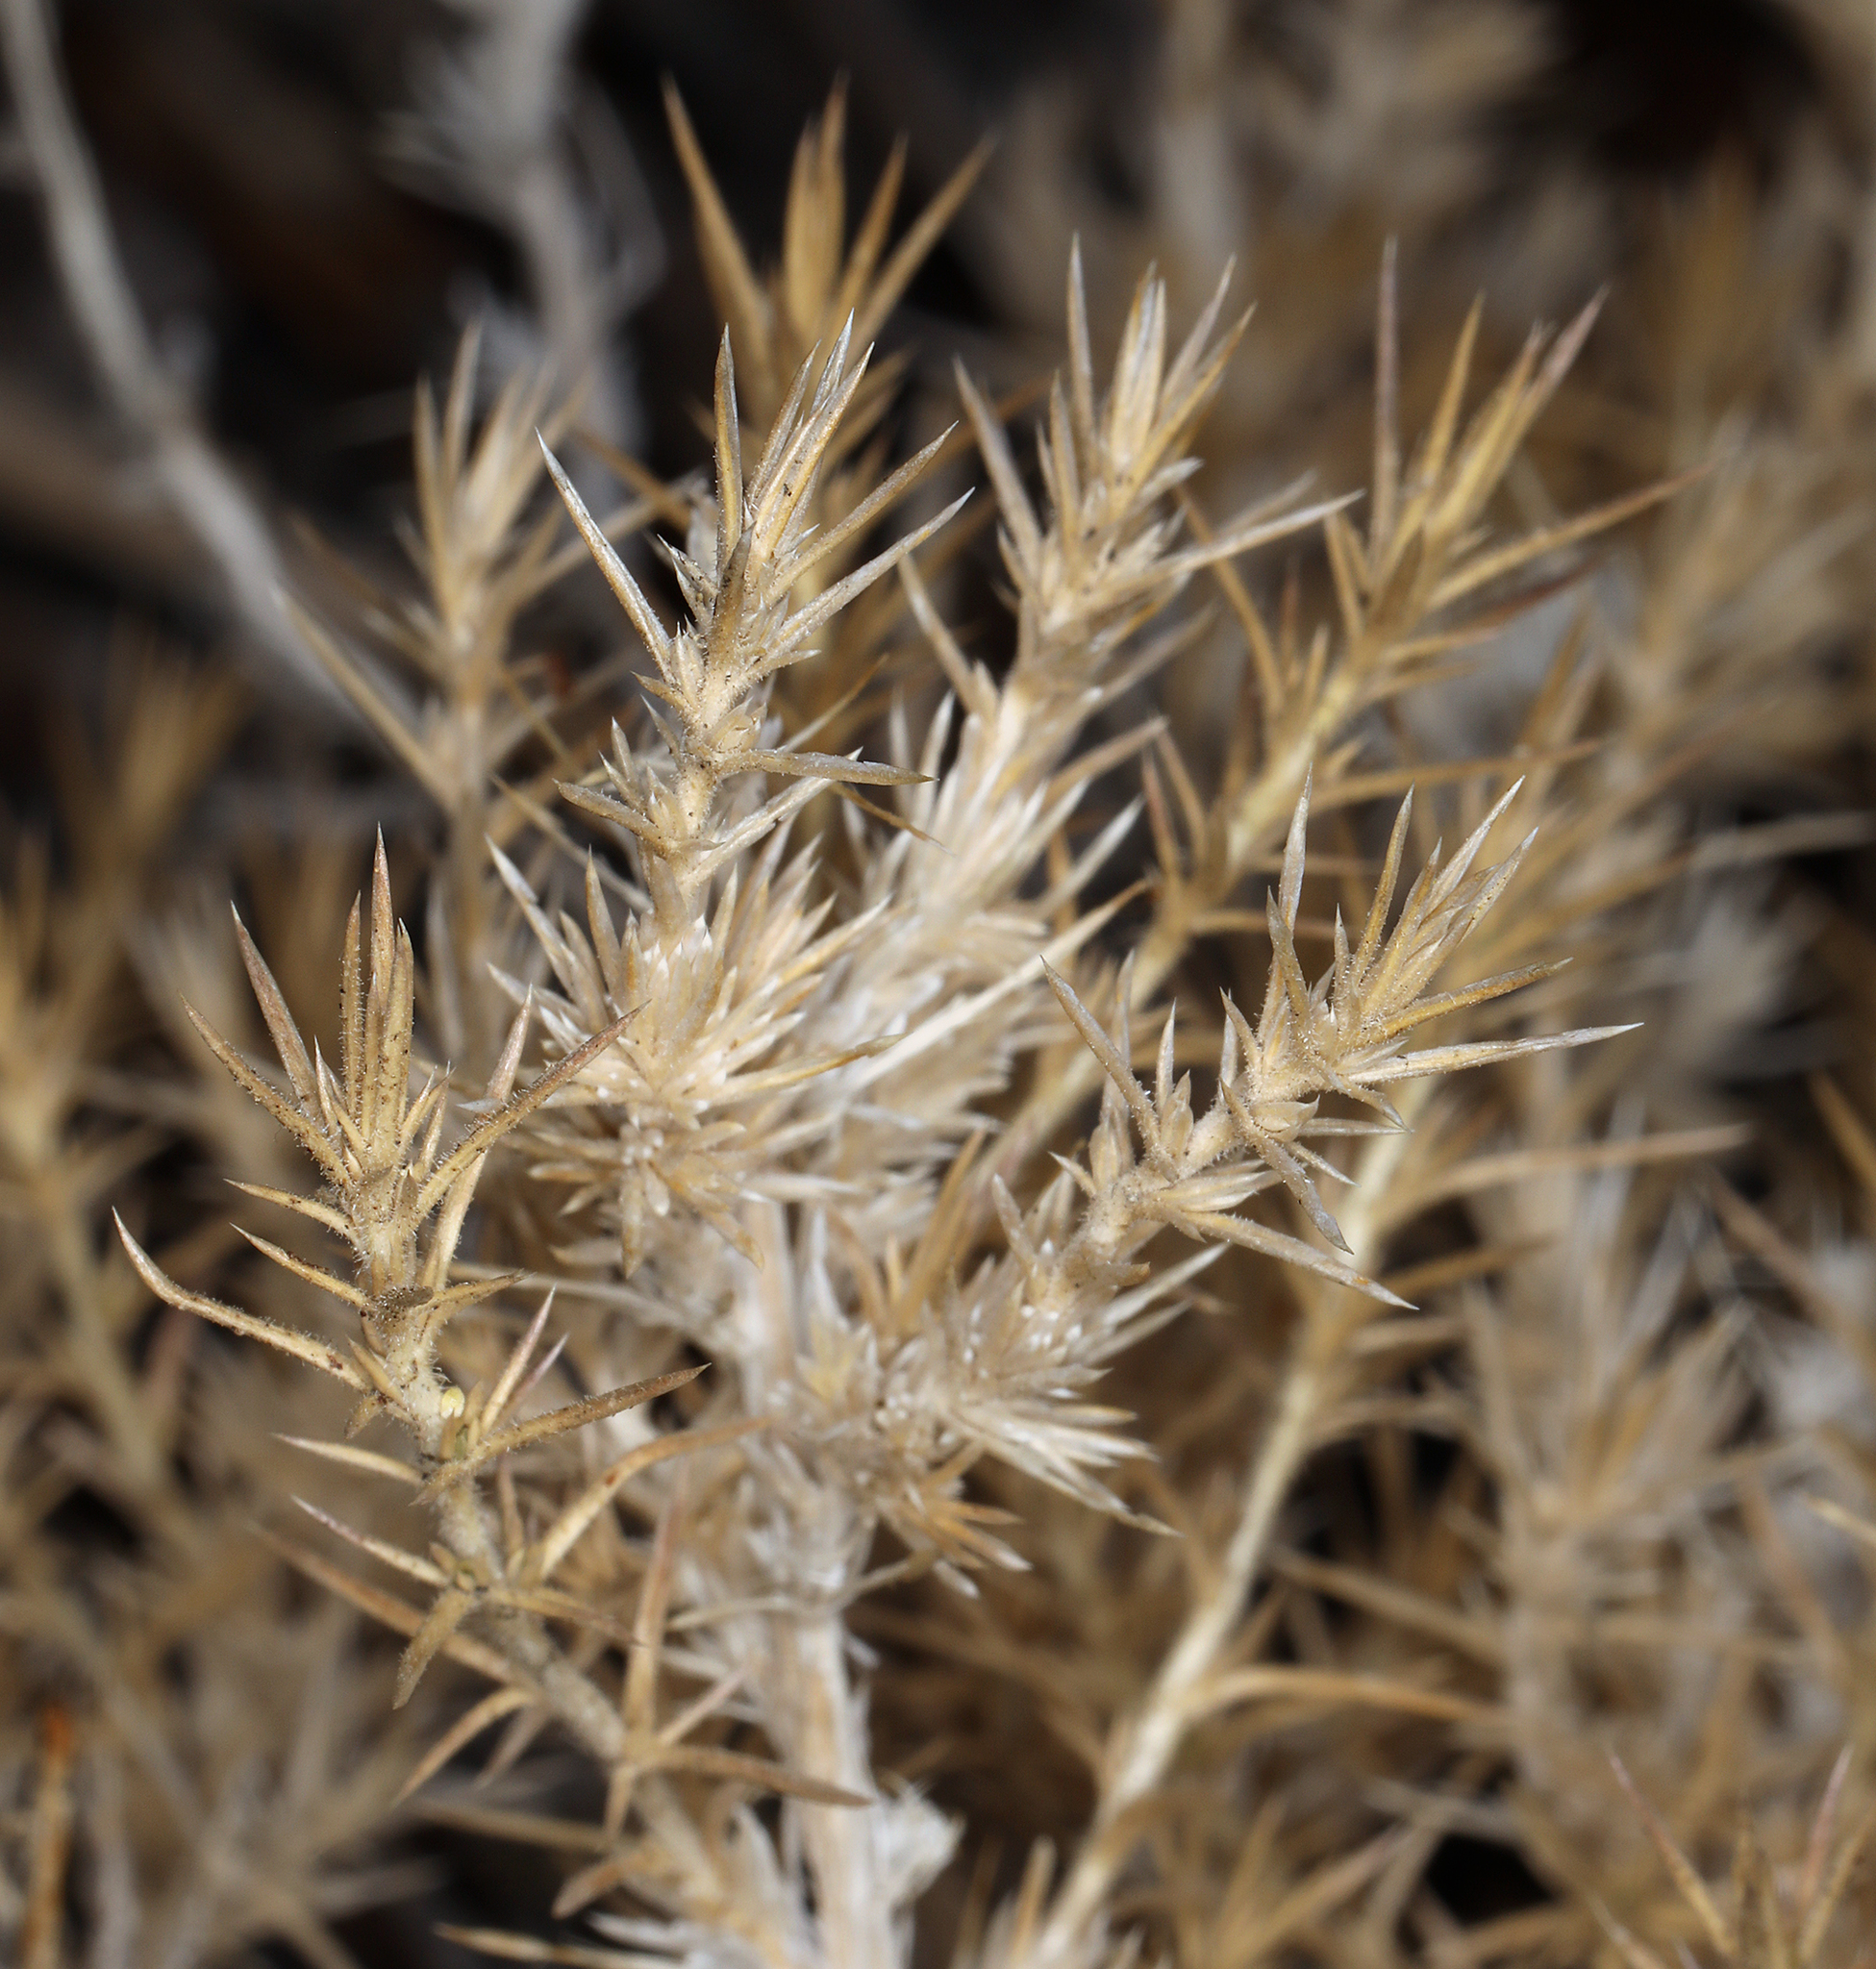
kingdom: Plantae
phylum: Tracheophyta
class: Magnoliopsida
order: Ericales
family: Polemoniaceae
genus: Linanthus
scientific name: Linanthus pungens
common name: Granite prickly phlox
